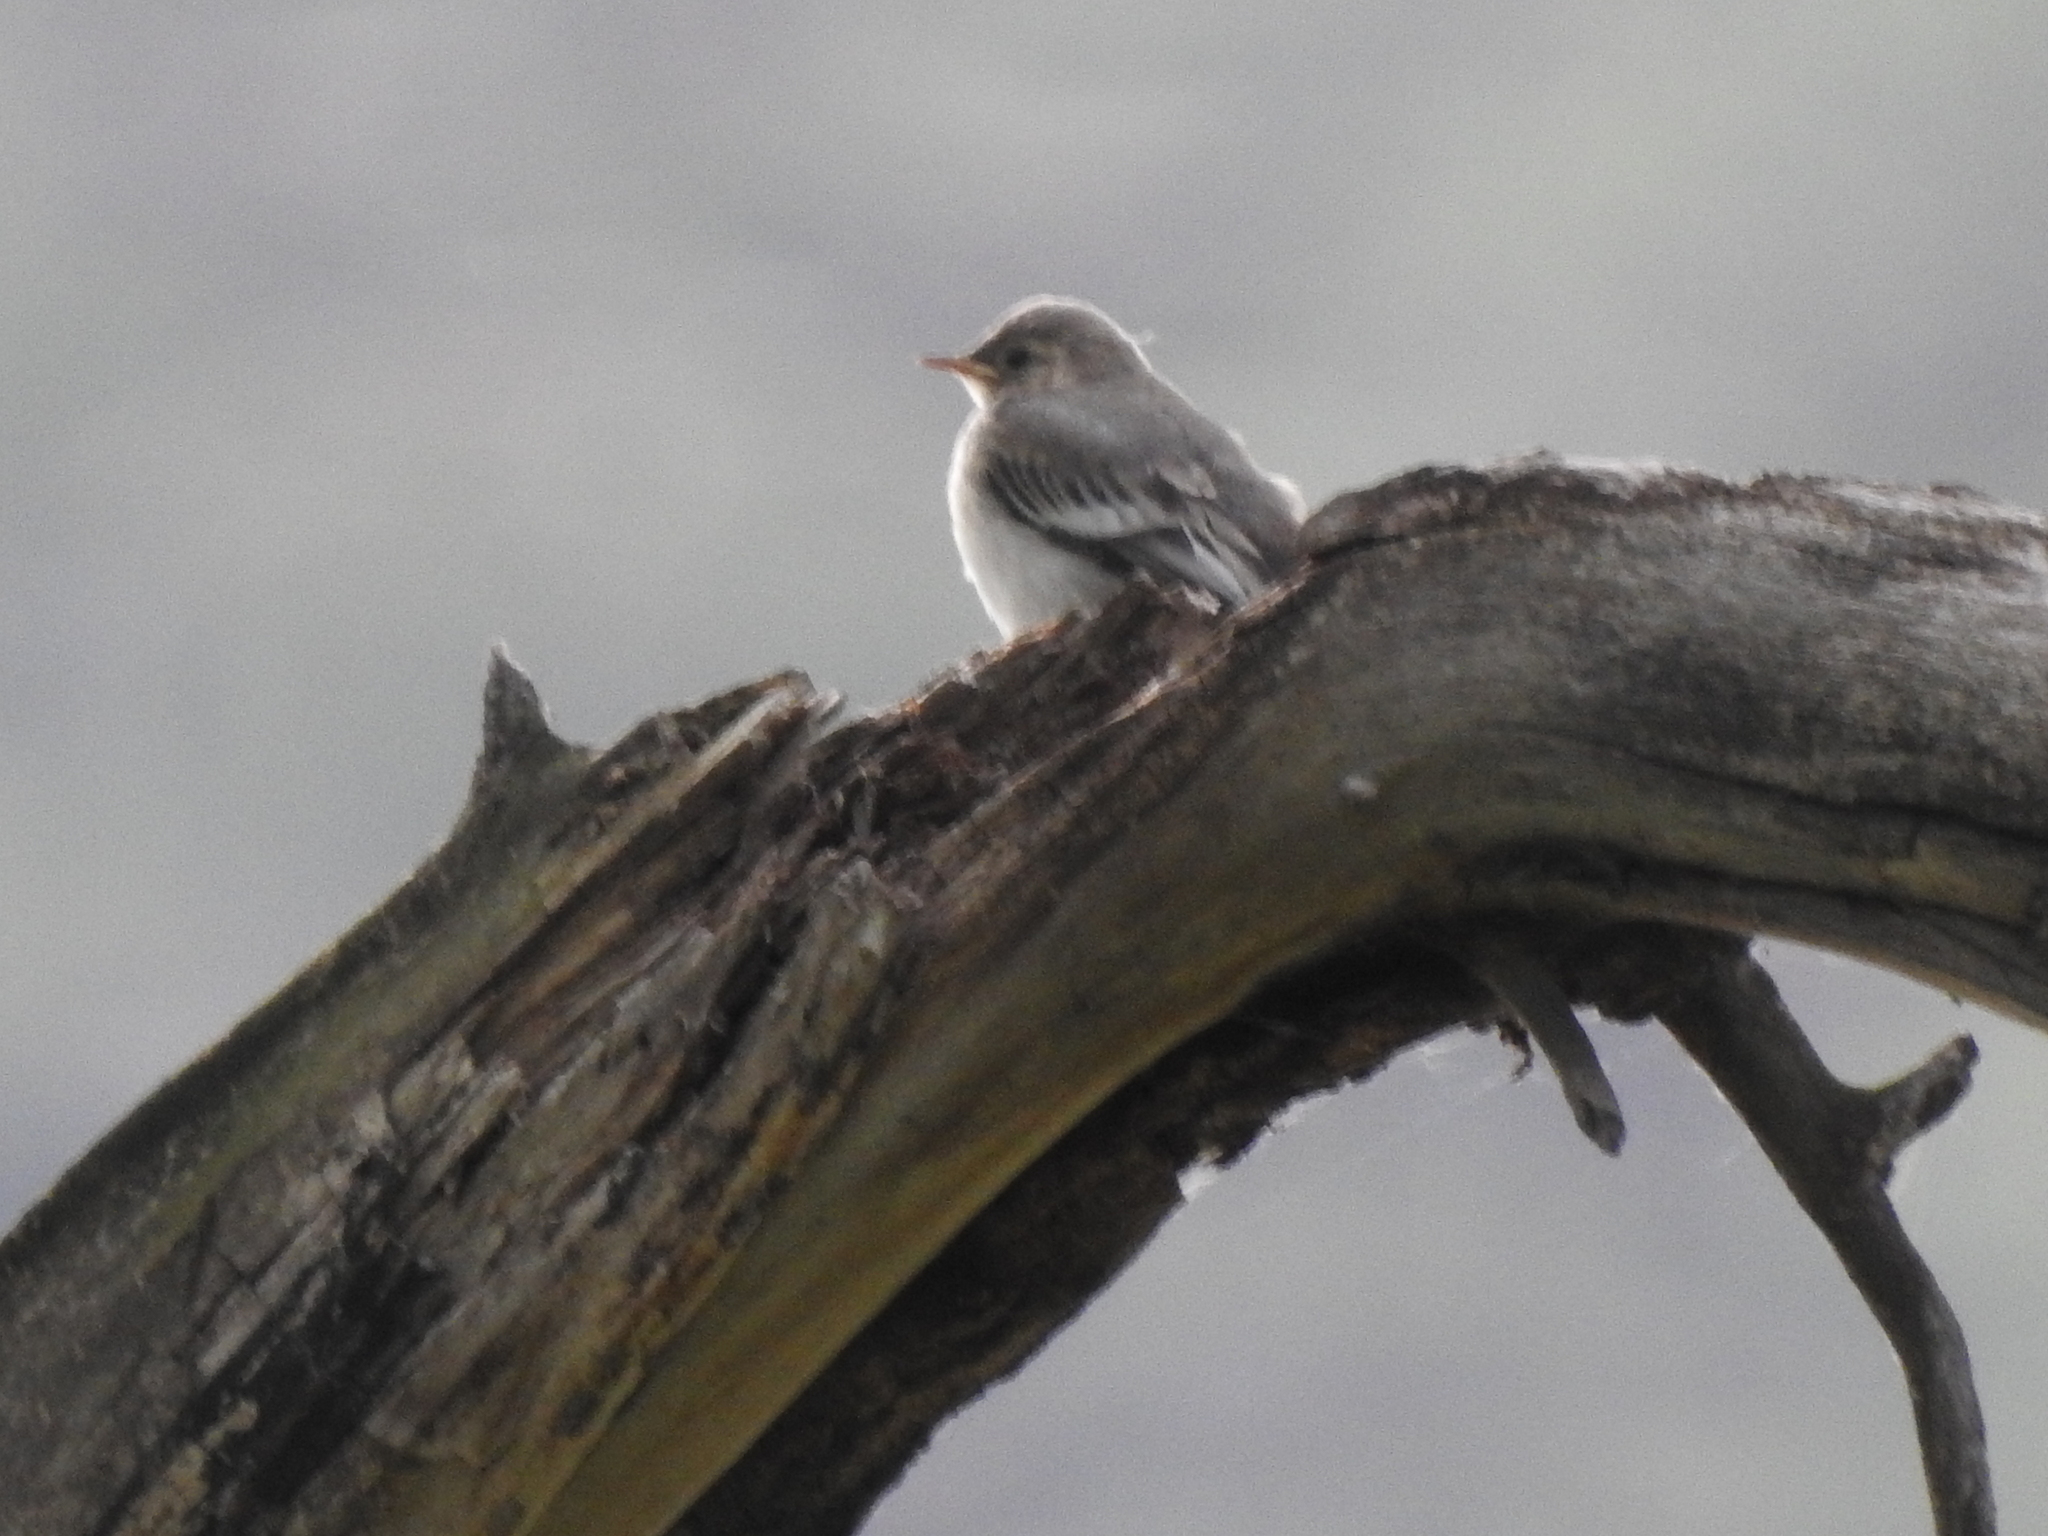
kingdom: Animalia
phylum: Chordata
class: Aves
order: Passeriformes
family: Motacillidae
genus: Motacilla
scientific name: Motacilla alba
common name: White wagtail
